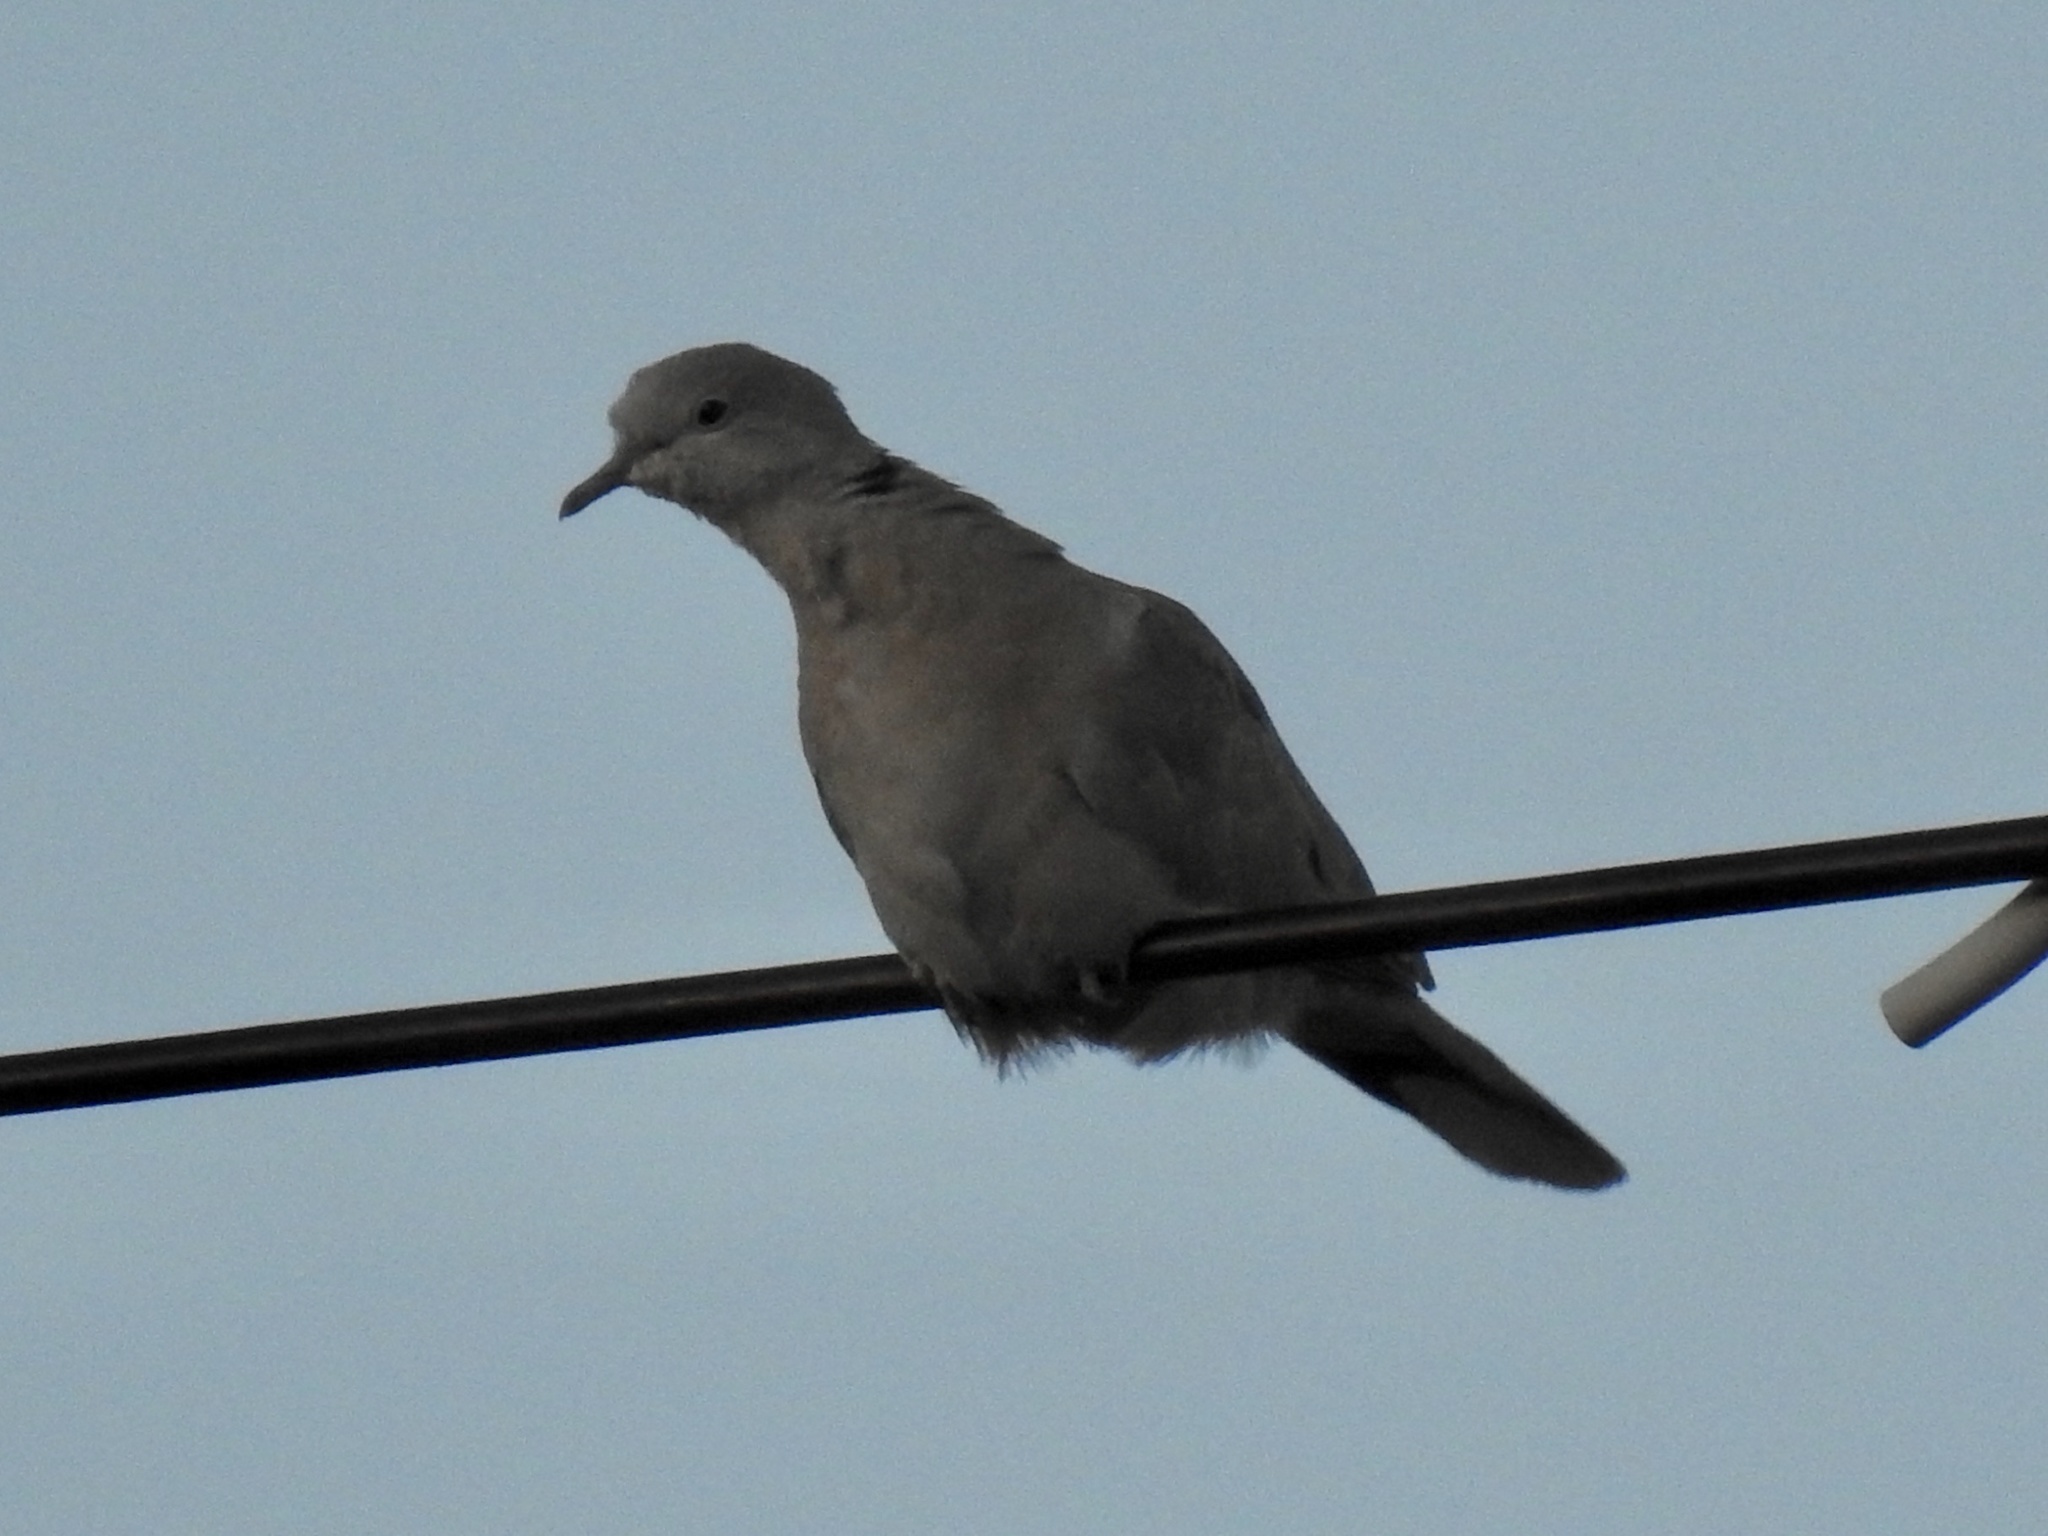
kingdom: Animalia
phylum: Chordata
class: Aves
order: Columbiformes
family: Columbidae
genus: Streptopelia
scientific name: Streptopelia decaocto
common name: Eurasian collared dove
